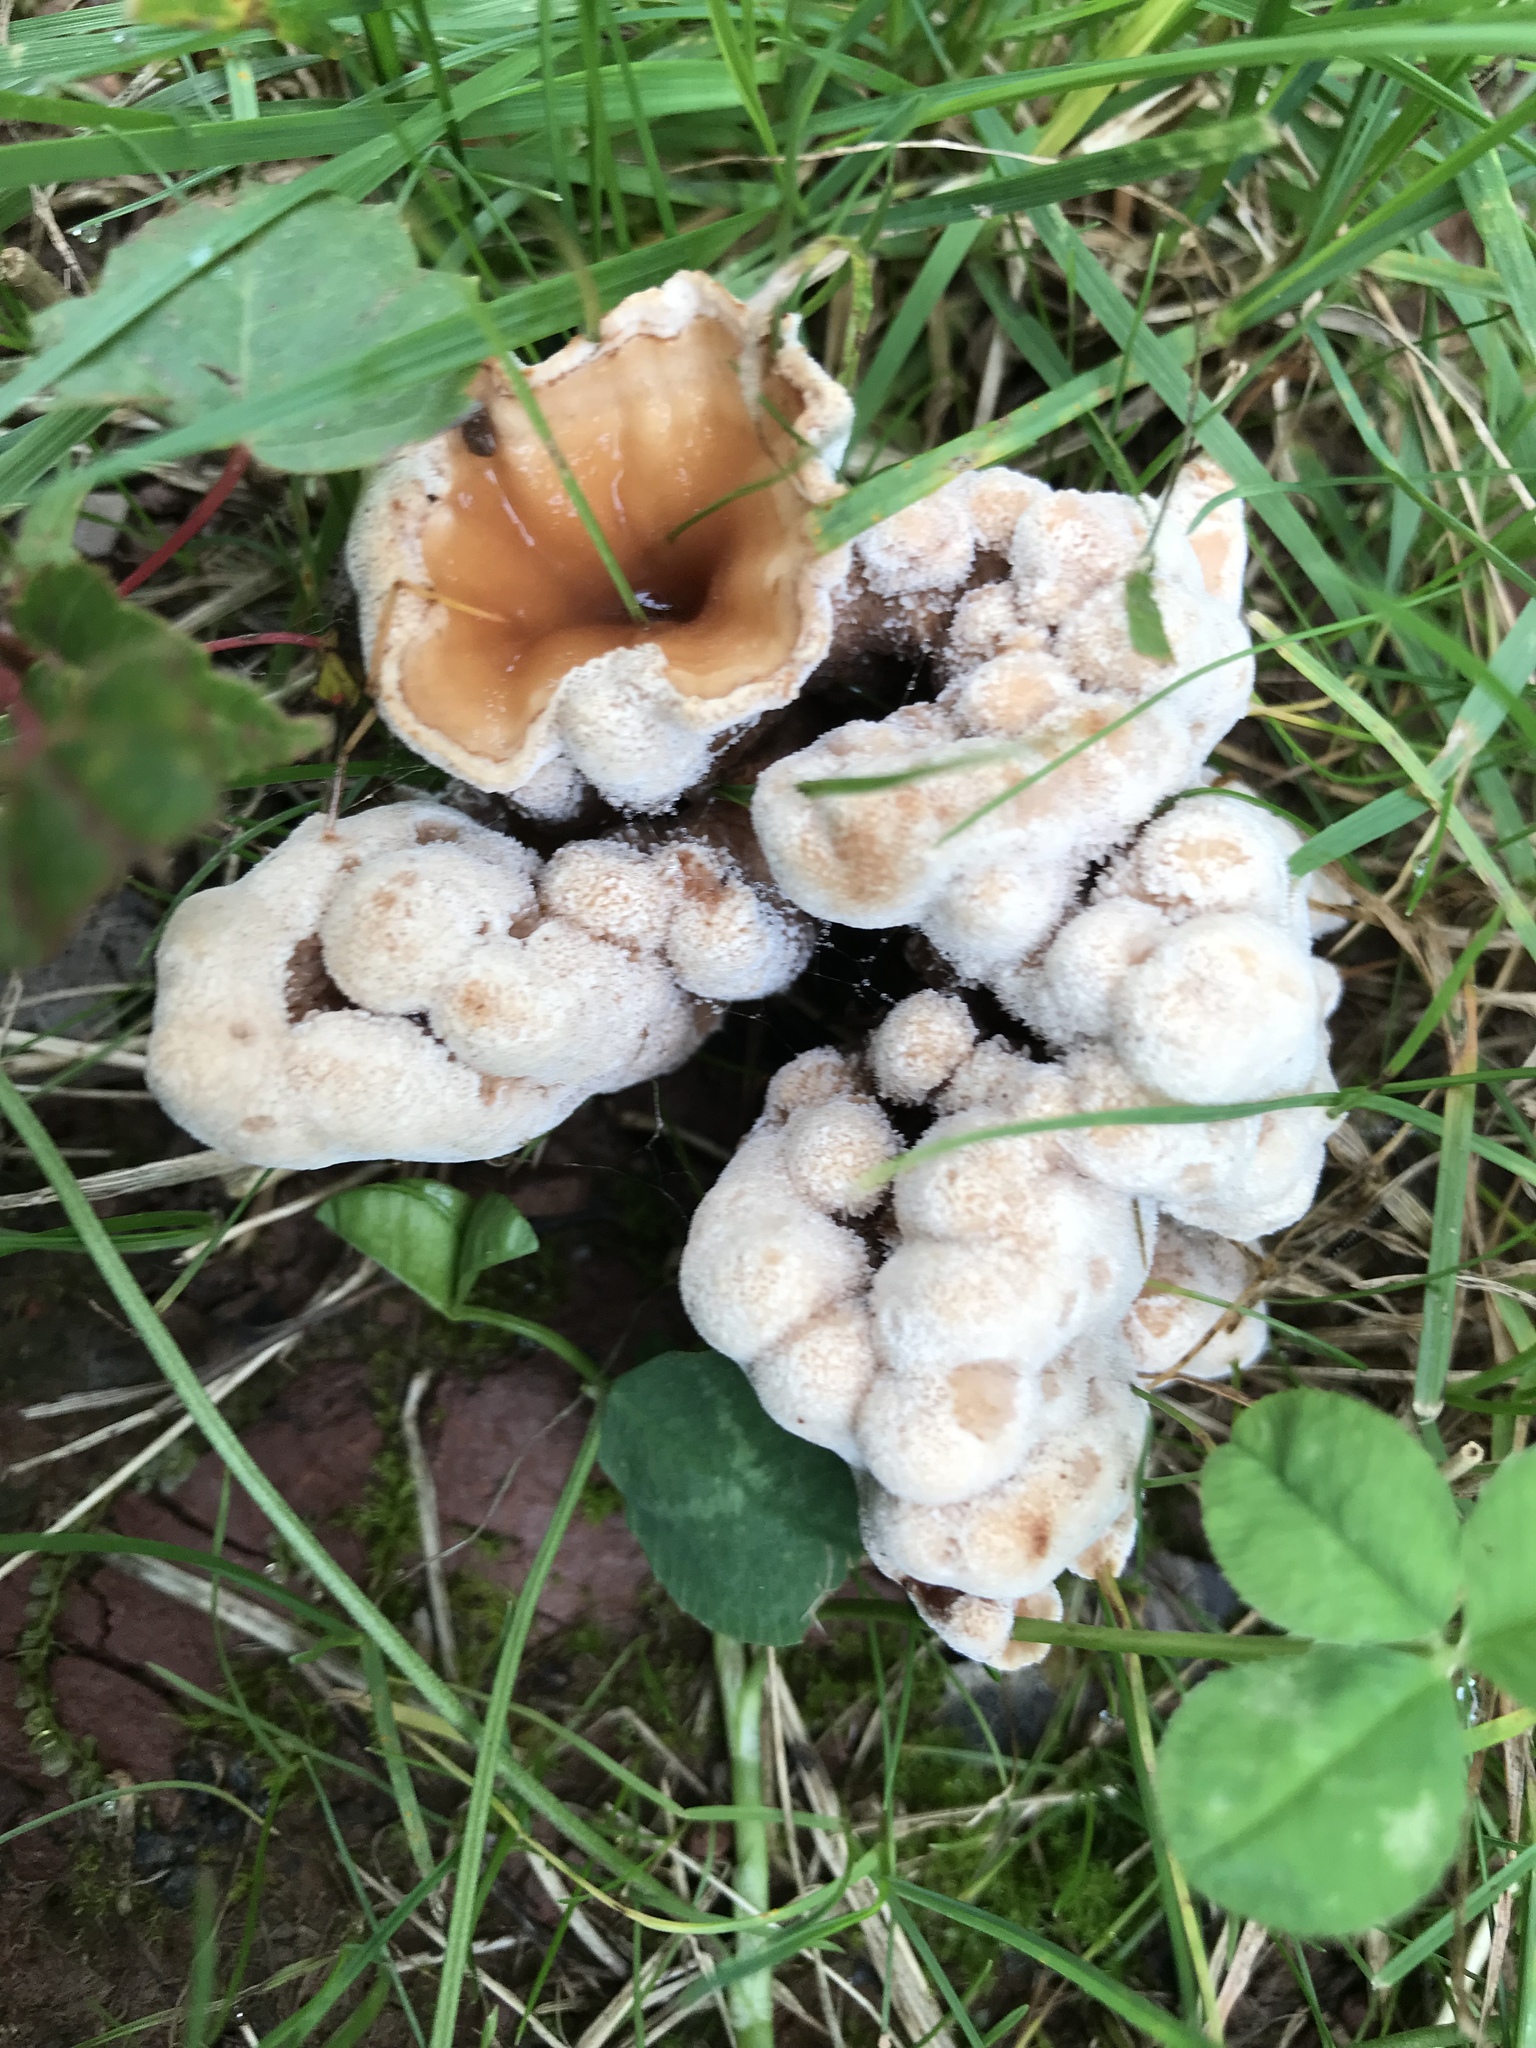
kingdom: Fungi
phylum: Basidiomycota
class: Agaricomycetes
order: Polyporales
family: Podoscyphaceae
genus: Abortiporus
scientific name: Abortiporus biennis
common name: Blushing rosette
